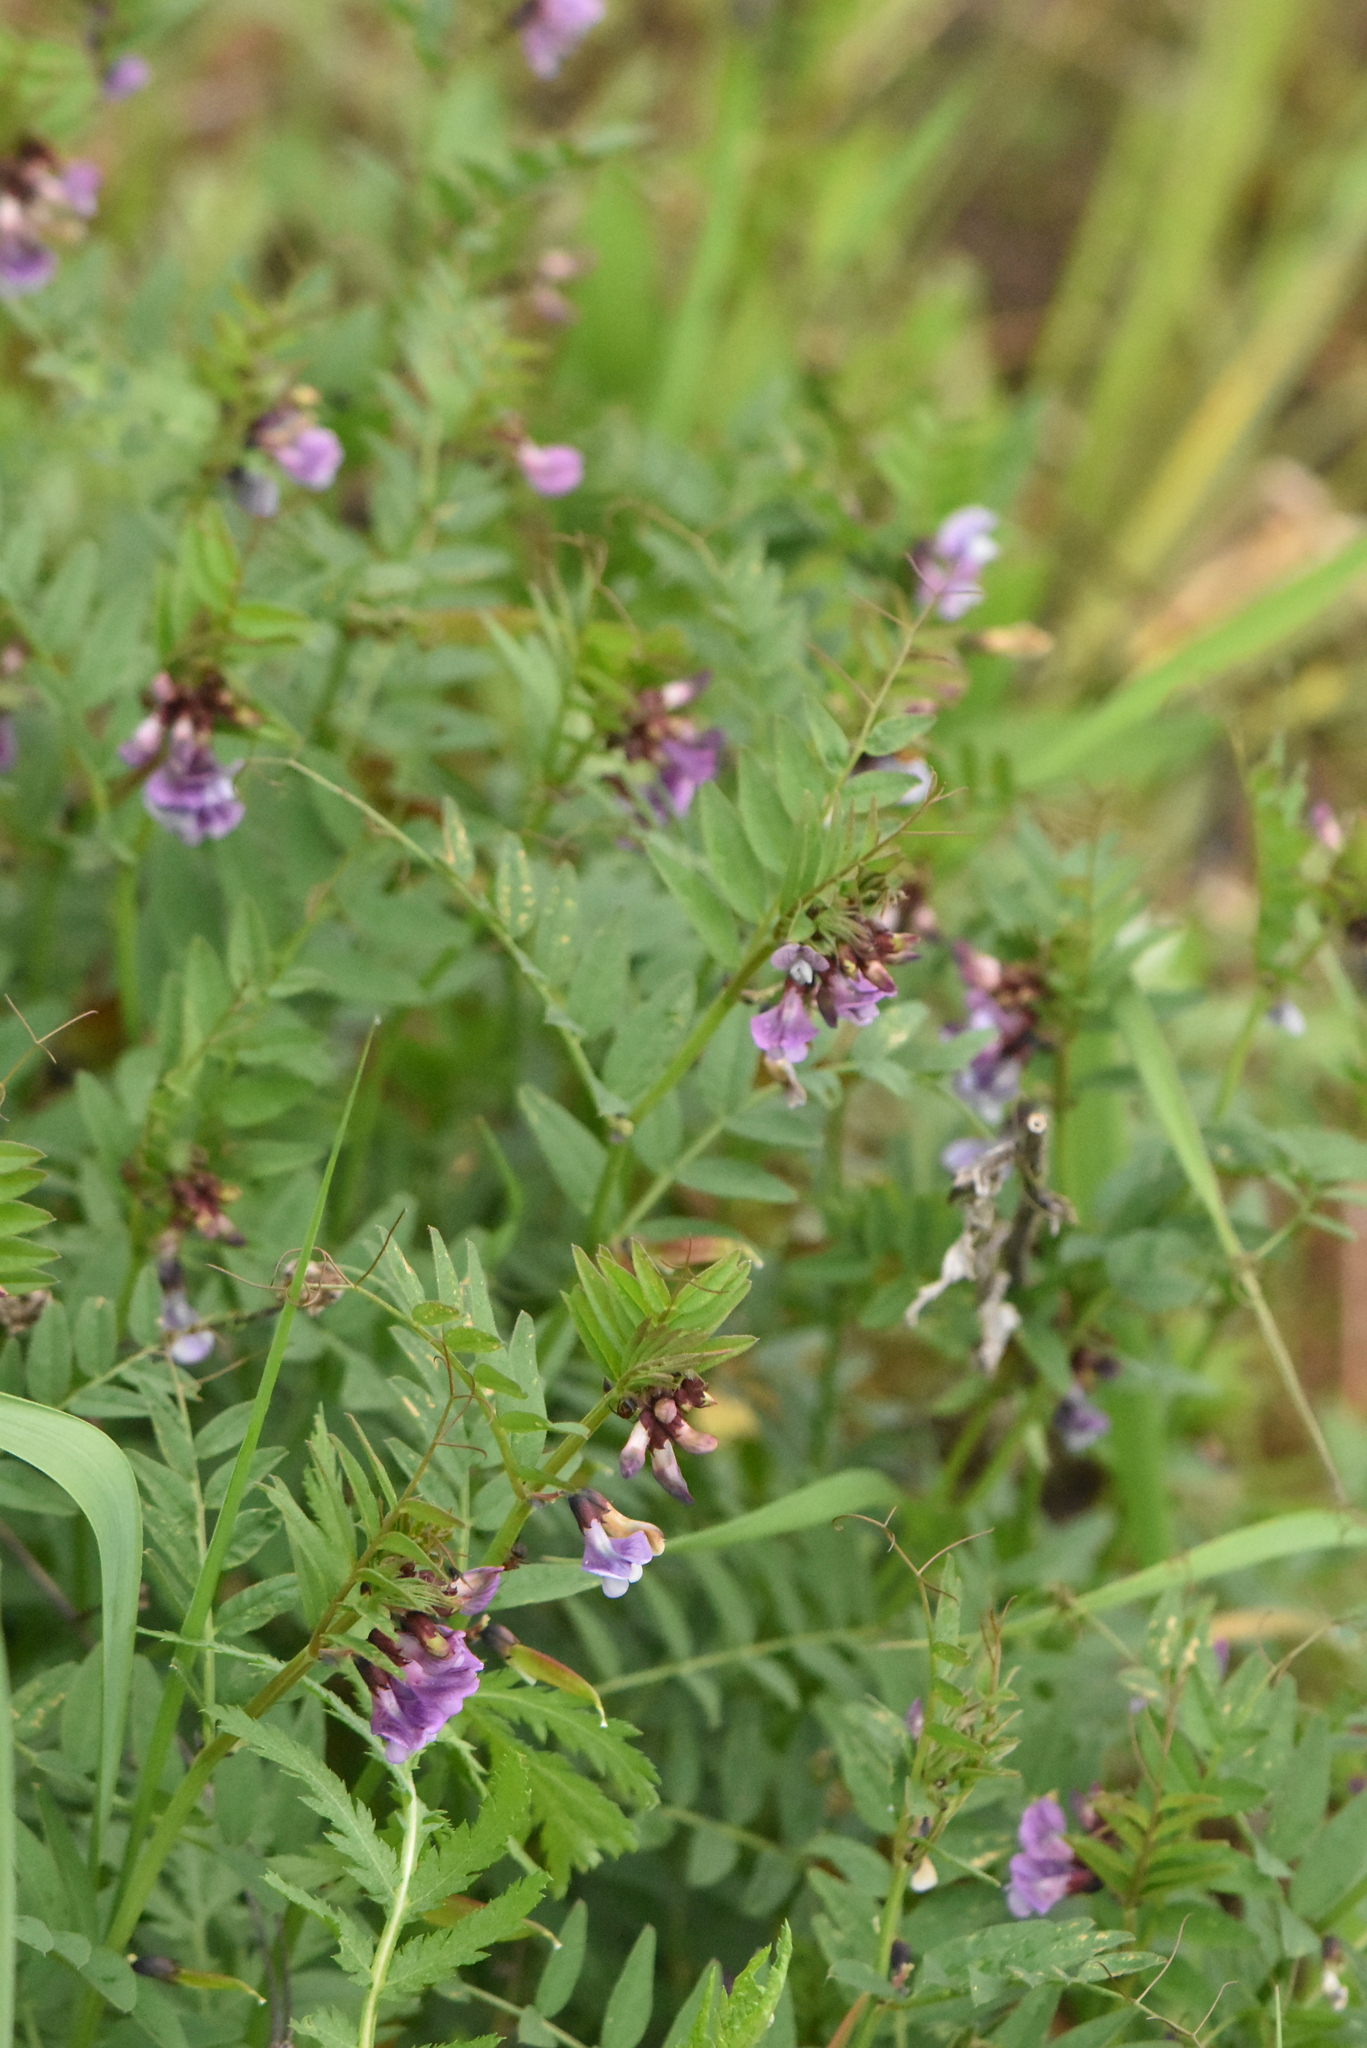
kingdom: Plantae
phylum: Tracheophyta
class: Magnoliopsida
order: Fabales
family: Fabaceae
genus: Vicia
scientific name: Vicia sepium
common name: Bush vetch
